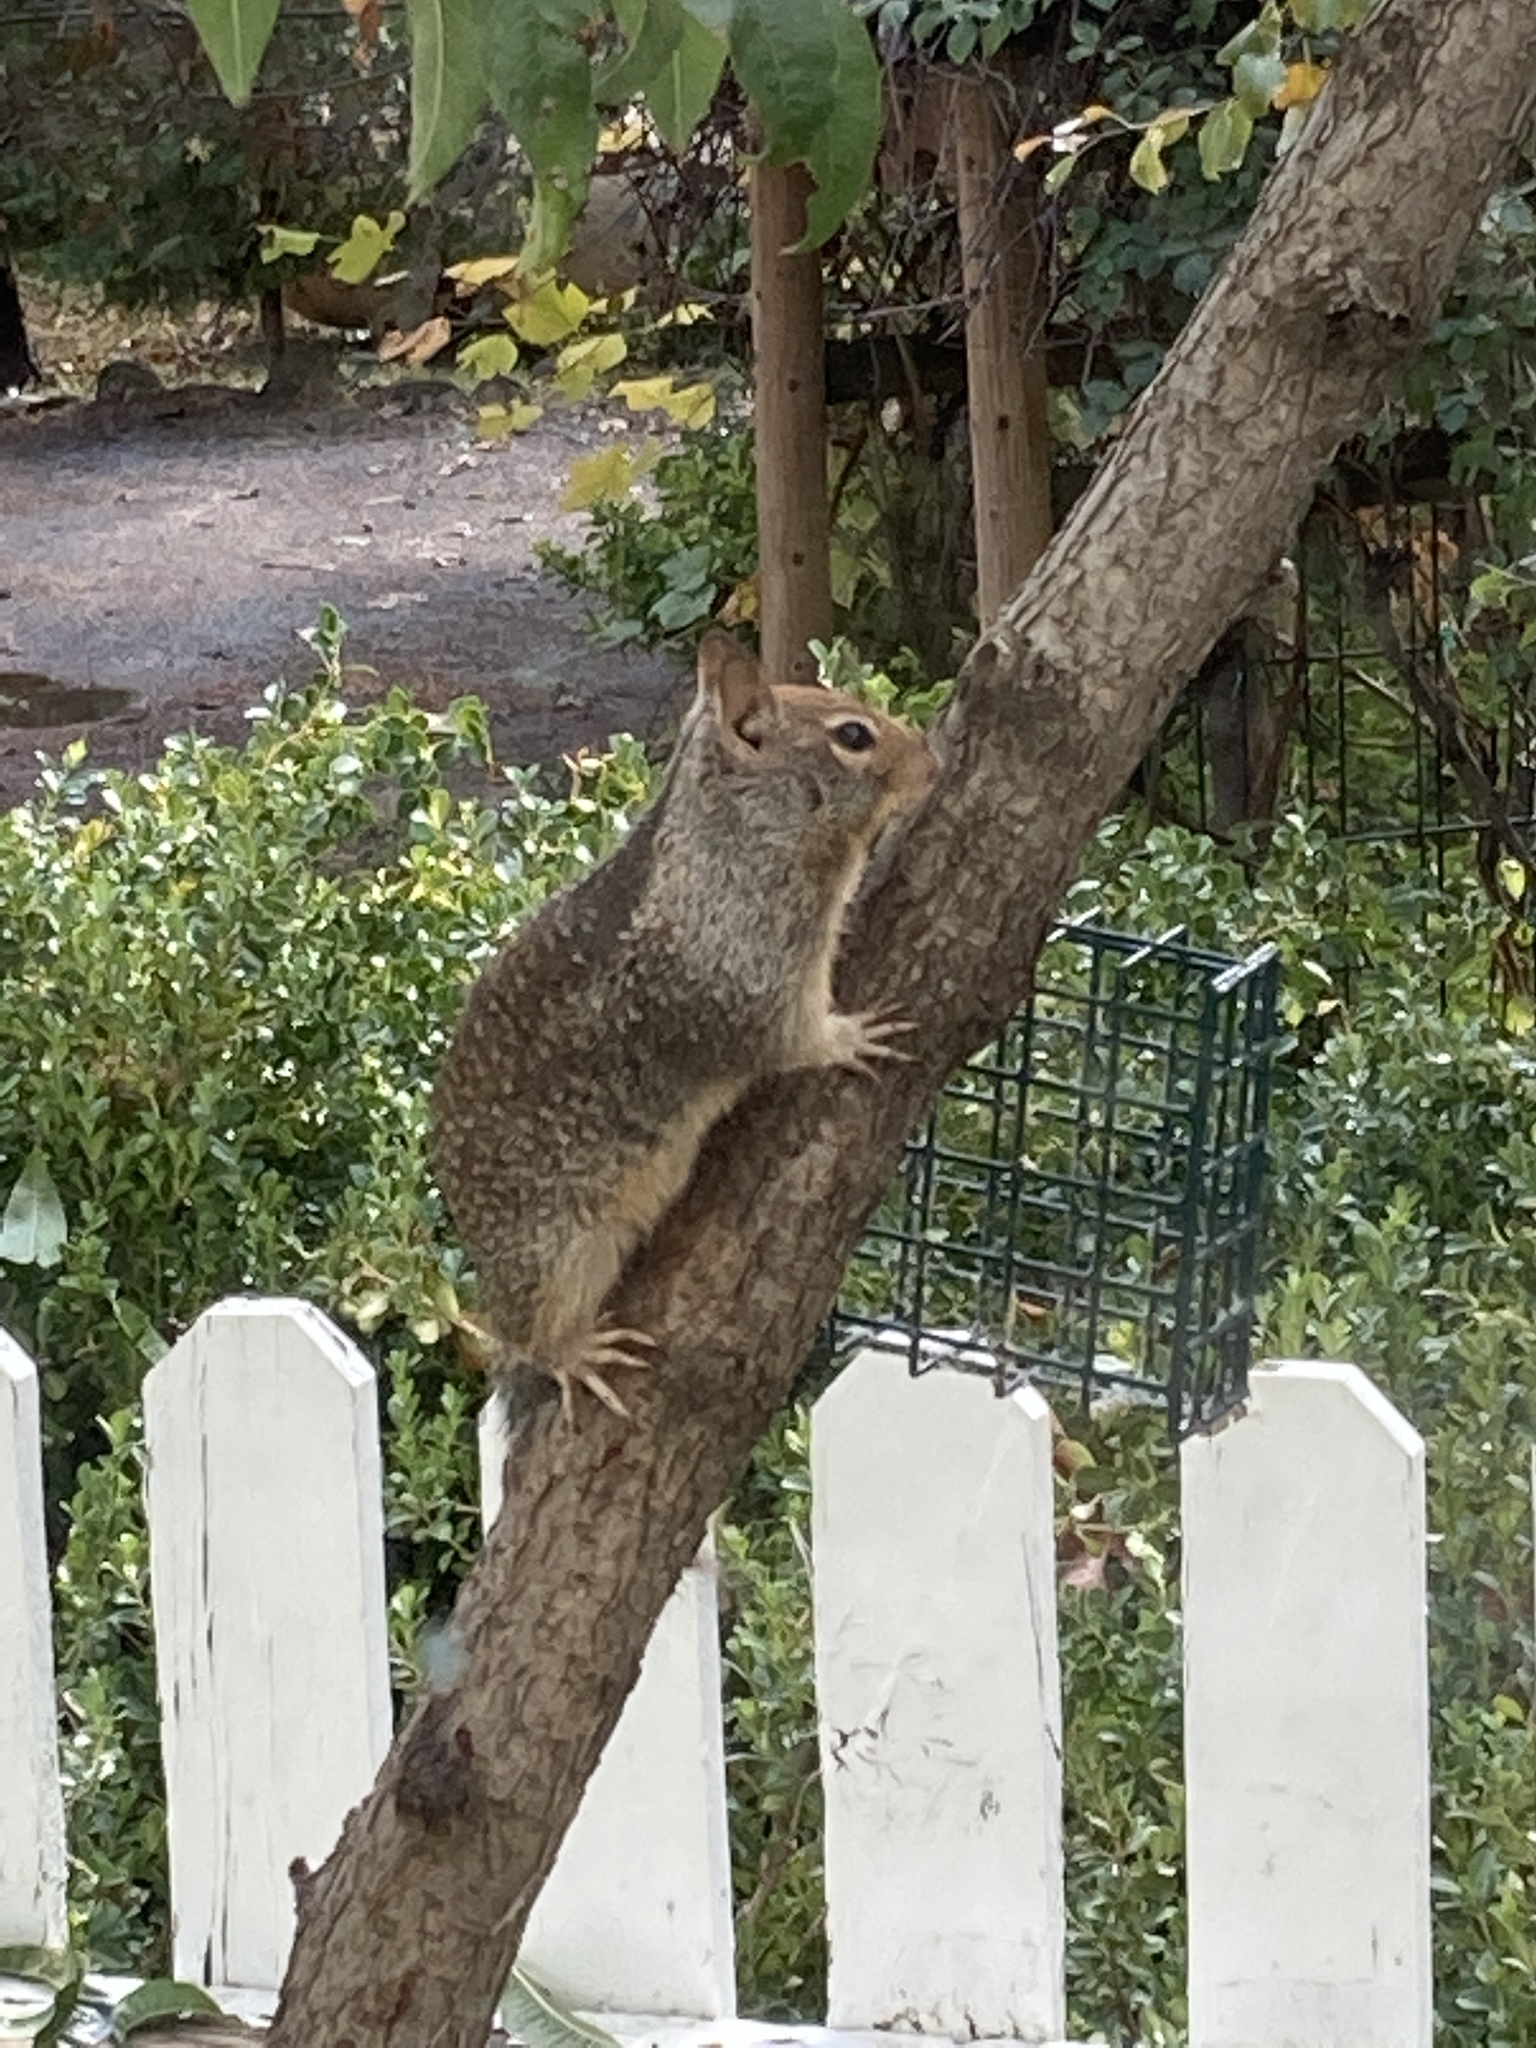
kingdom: Animalia
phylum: Chordata
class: Mammalia
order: Rodentia
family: Sciuridae
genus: Otospermophilus
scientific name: Otospermophilus beecheyi
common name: California ground squirrel
